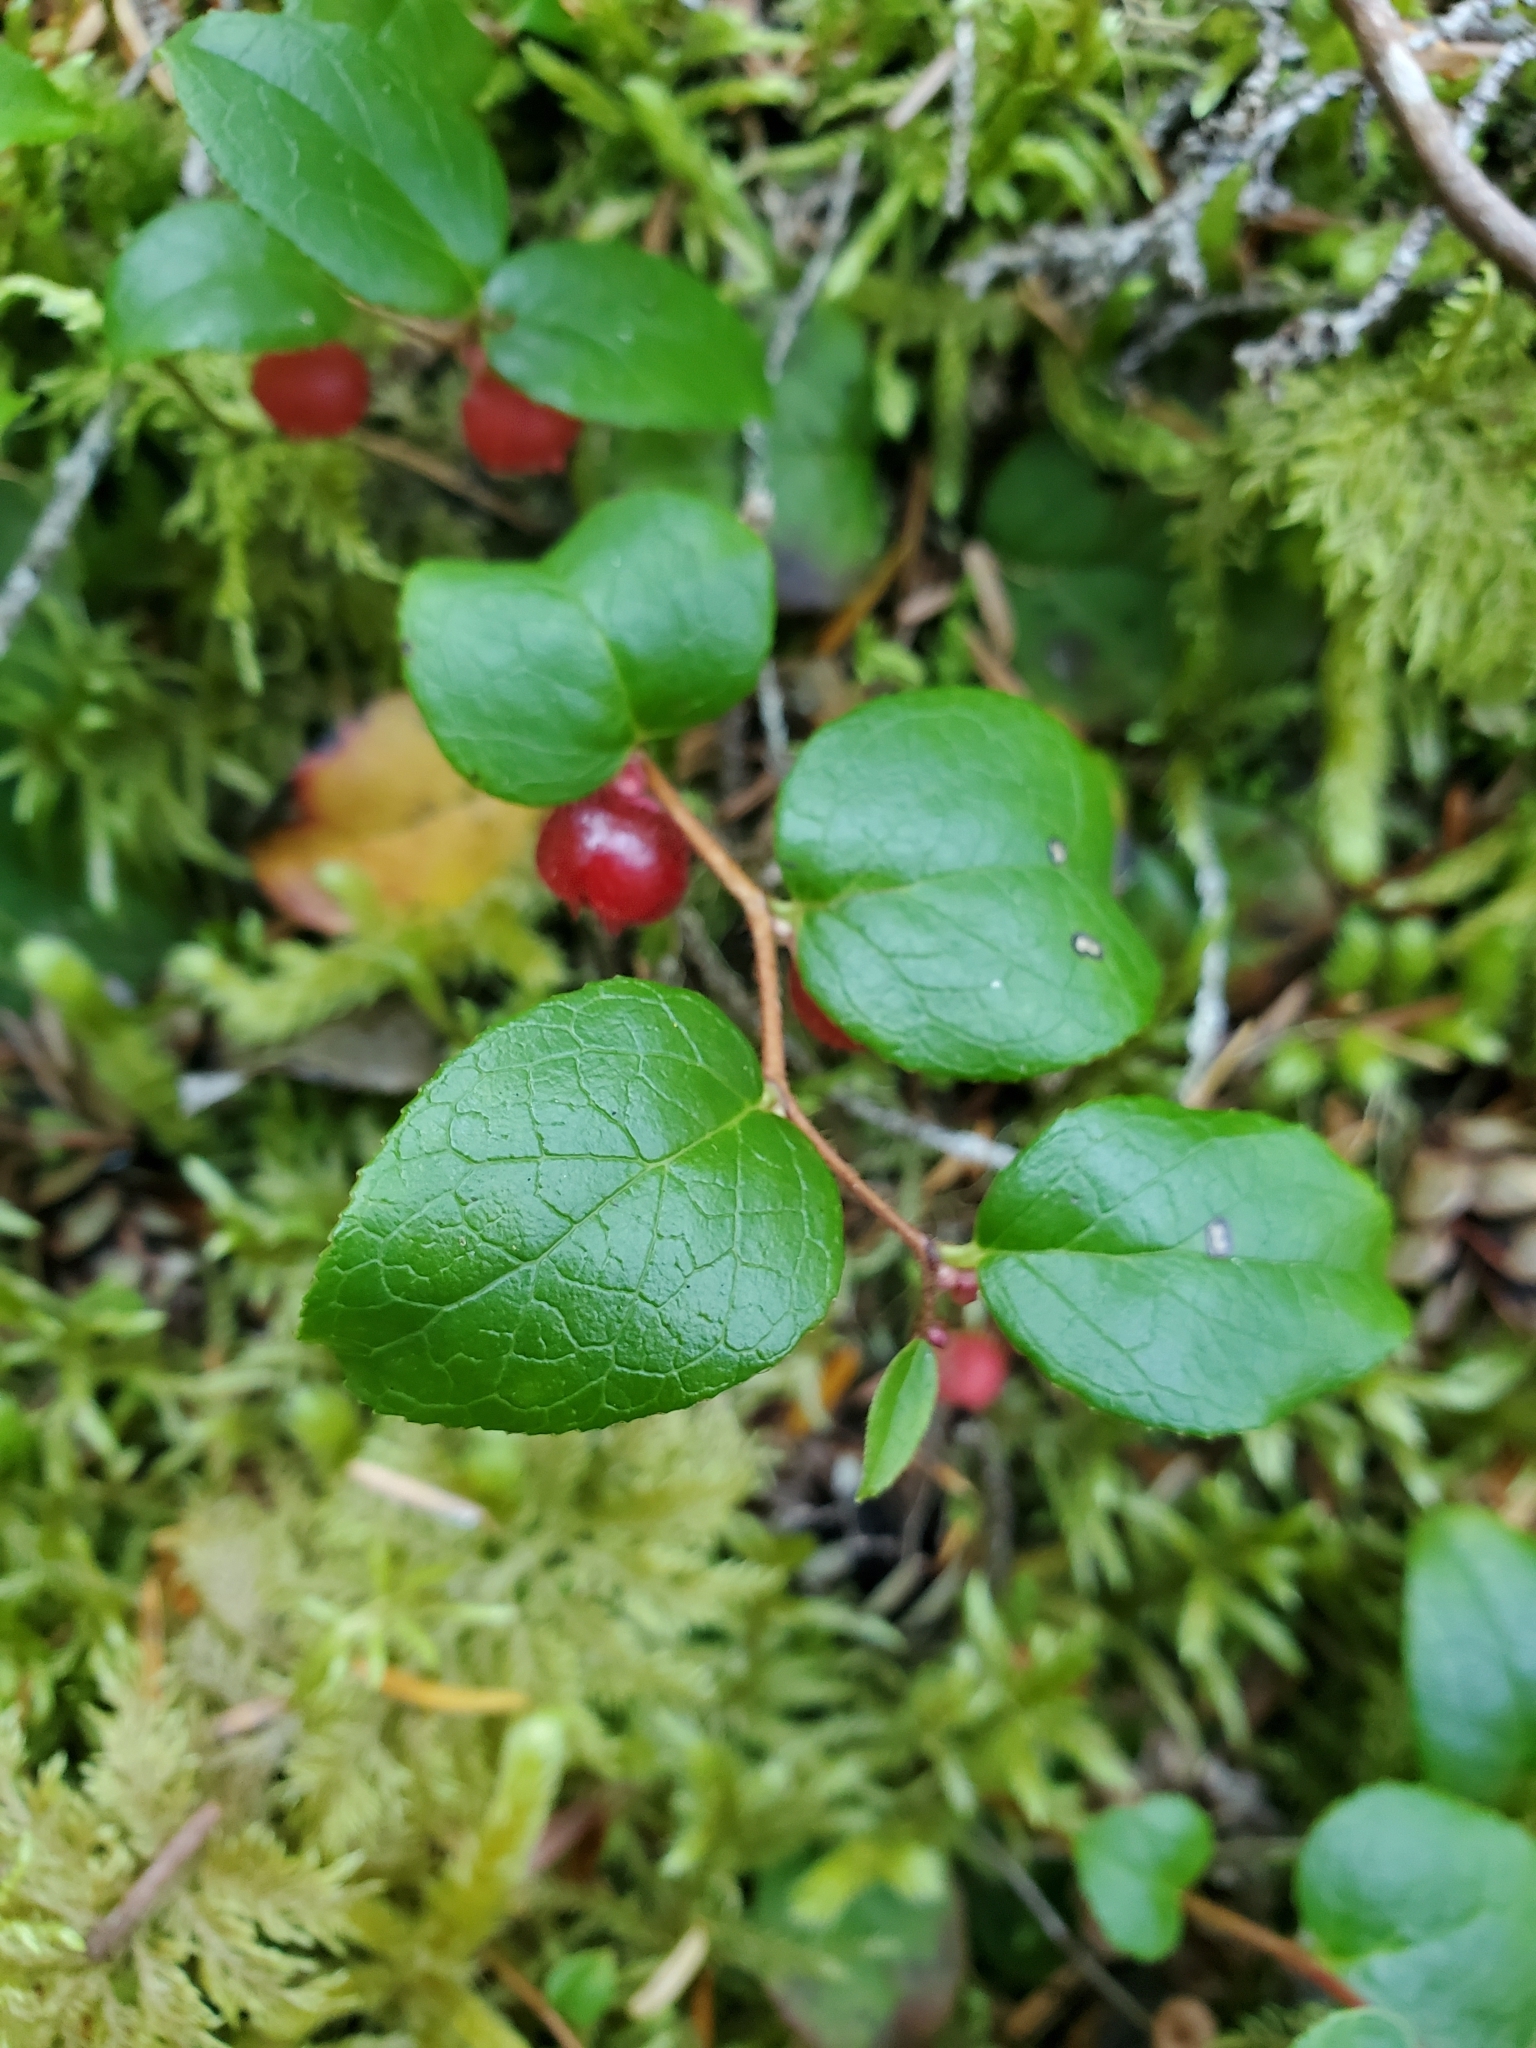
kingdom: Plantae
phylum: Tracheophyta
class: Magnoliopsida
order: Ericales
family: Ericaceae
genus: Gaultheria
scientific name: Gaultheria ovatifolia
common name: Oregon wintergreen
